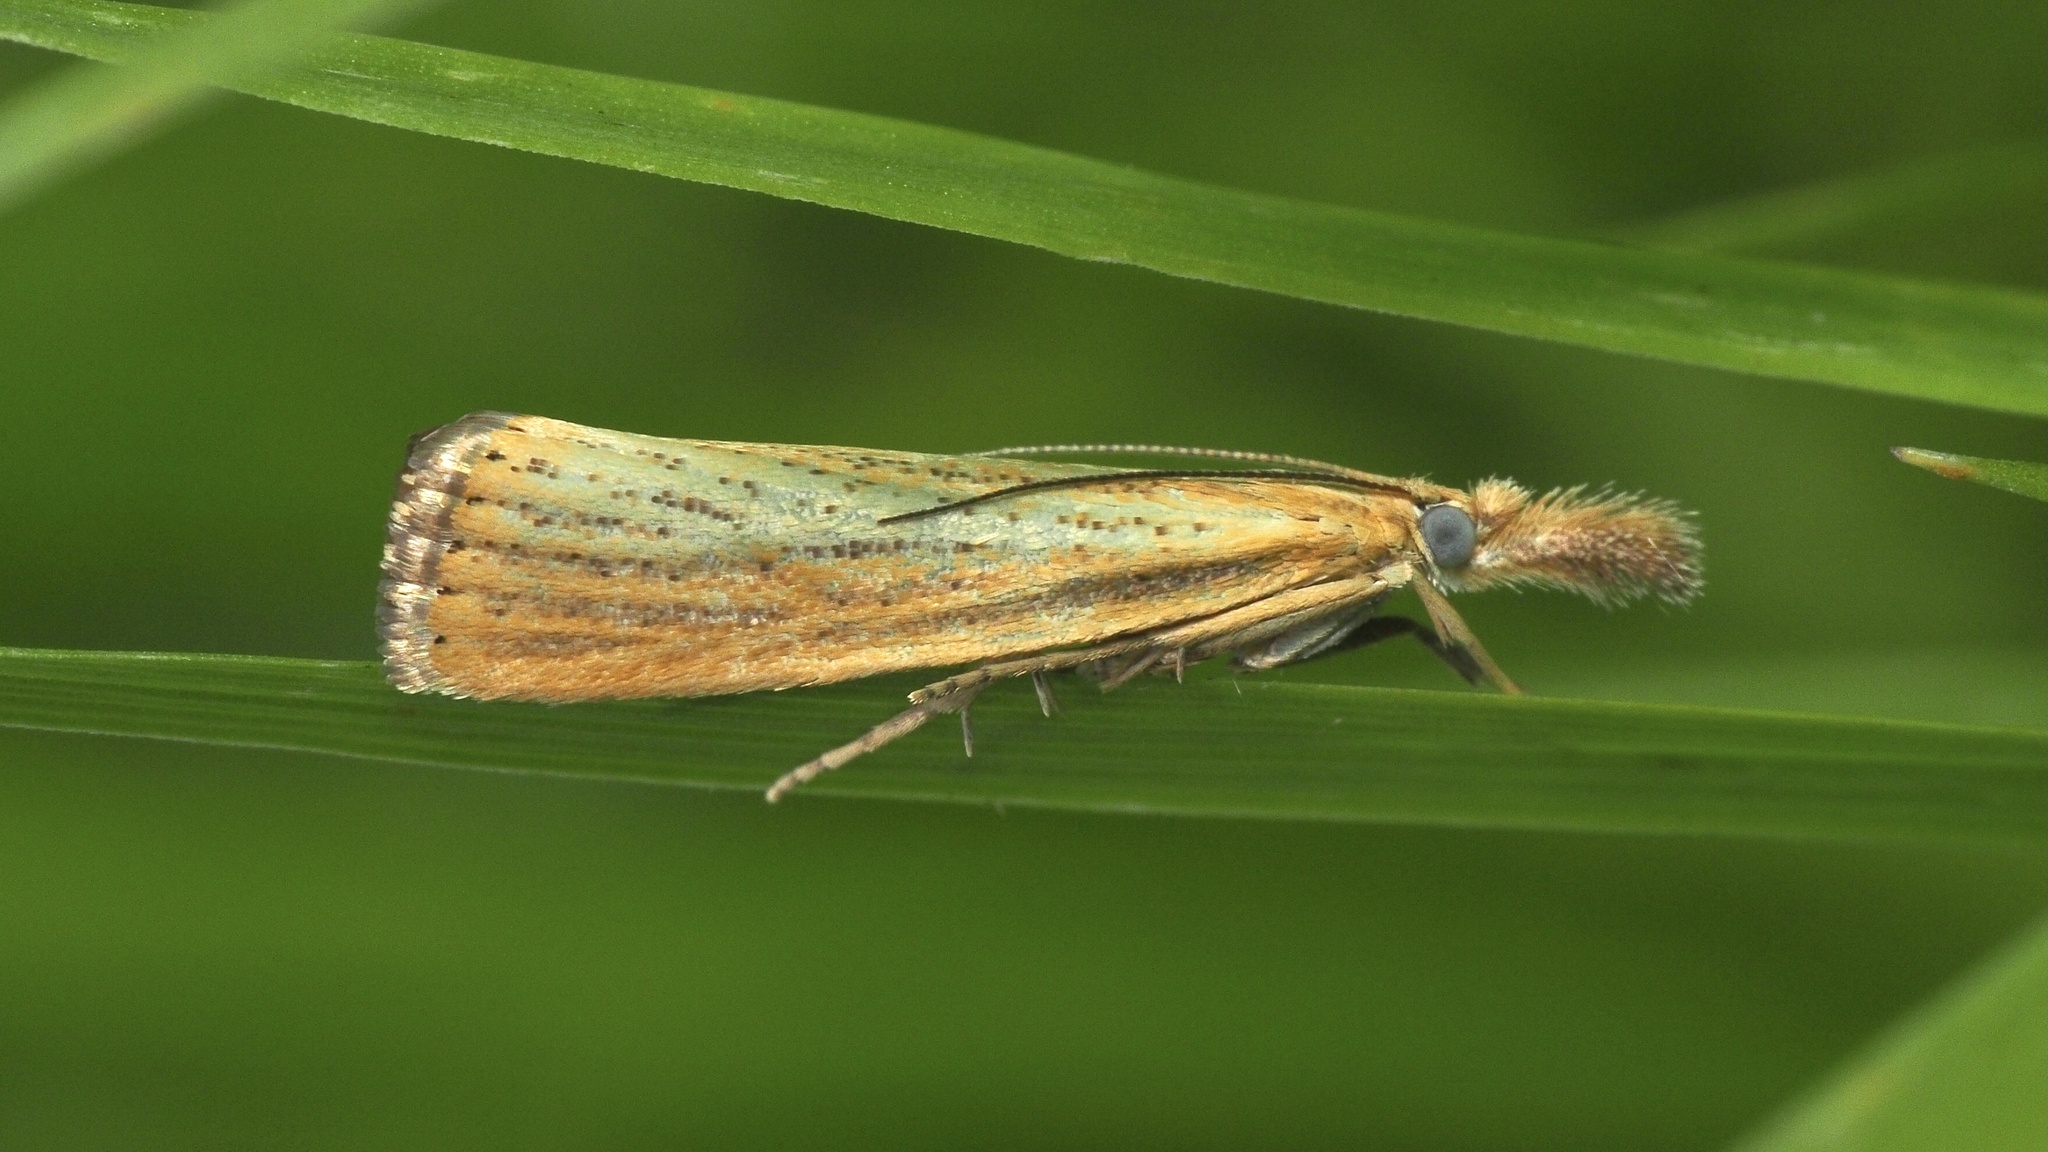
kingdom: Animalia
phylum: Arthropoda
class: Insecta
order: Lepidoptera
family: Crambidae
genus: Agriphila
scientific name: Agriphila straminella
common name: Straw grass-veneer
